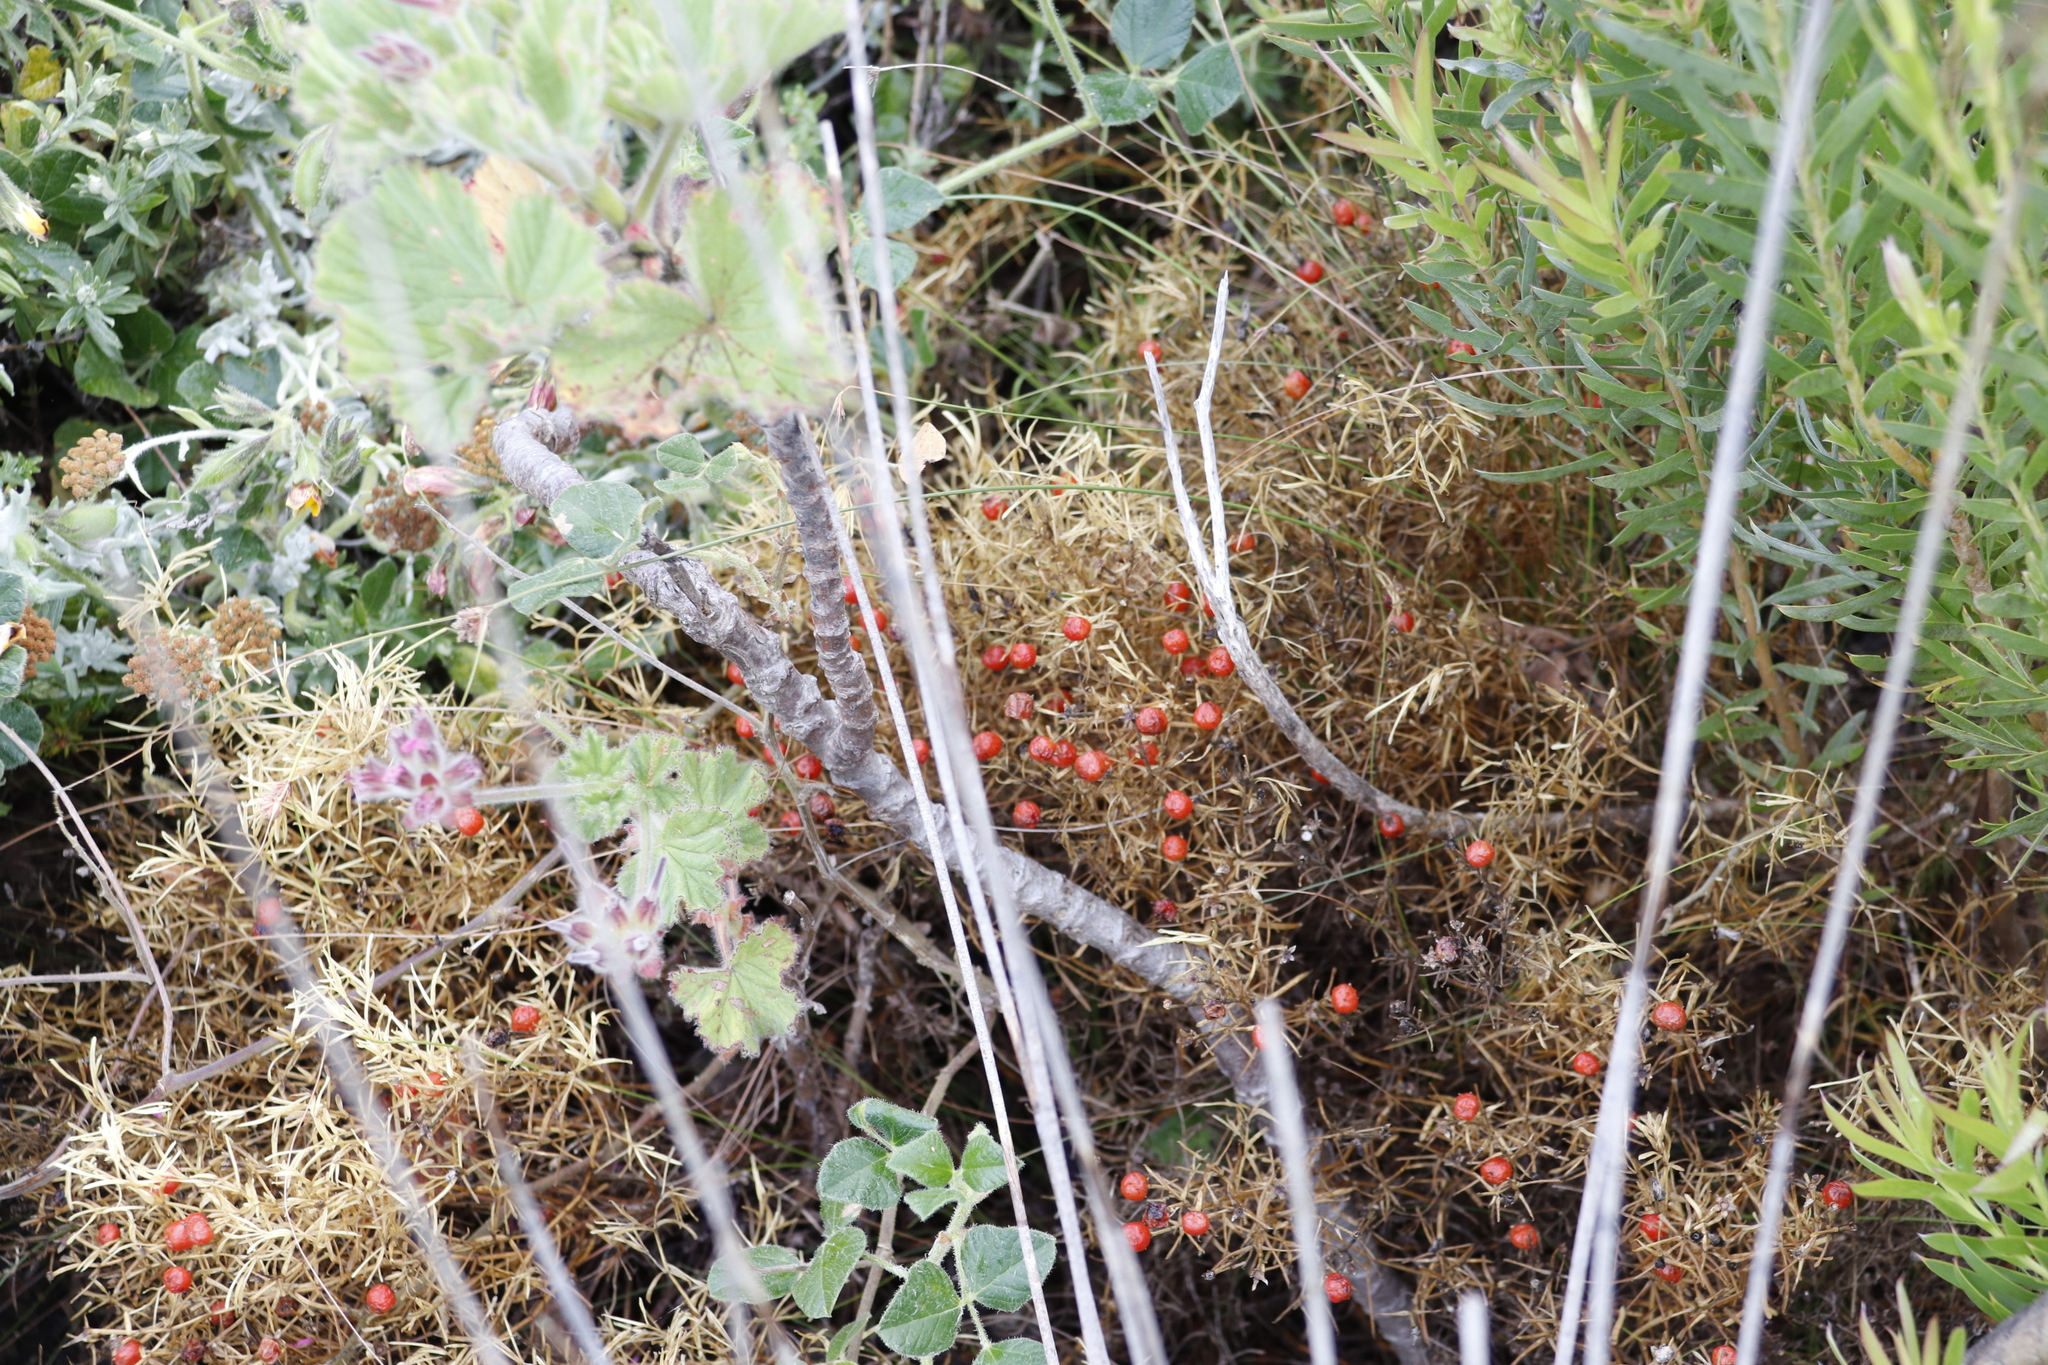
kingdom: Plantae
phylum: Tracheophyta
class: Magnoliopsida
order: Gentianales
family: Gentianaceae
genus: Chironia
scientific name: Chironia baccifera
